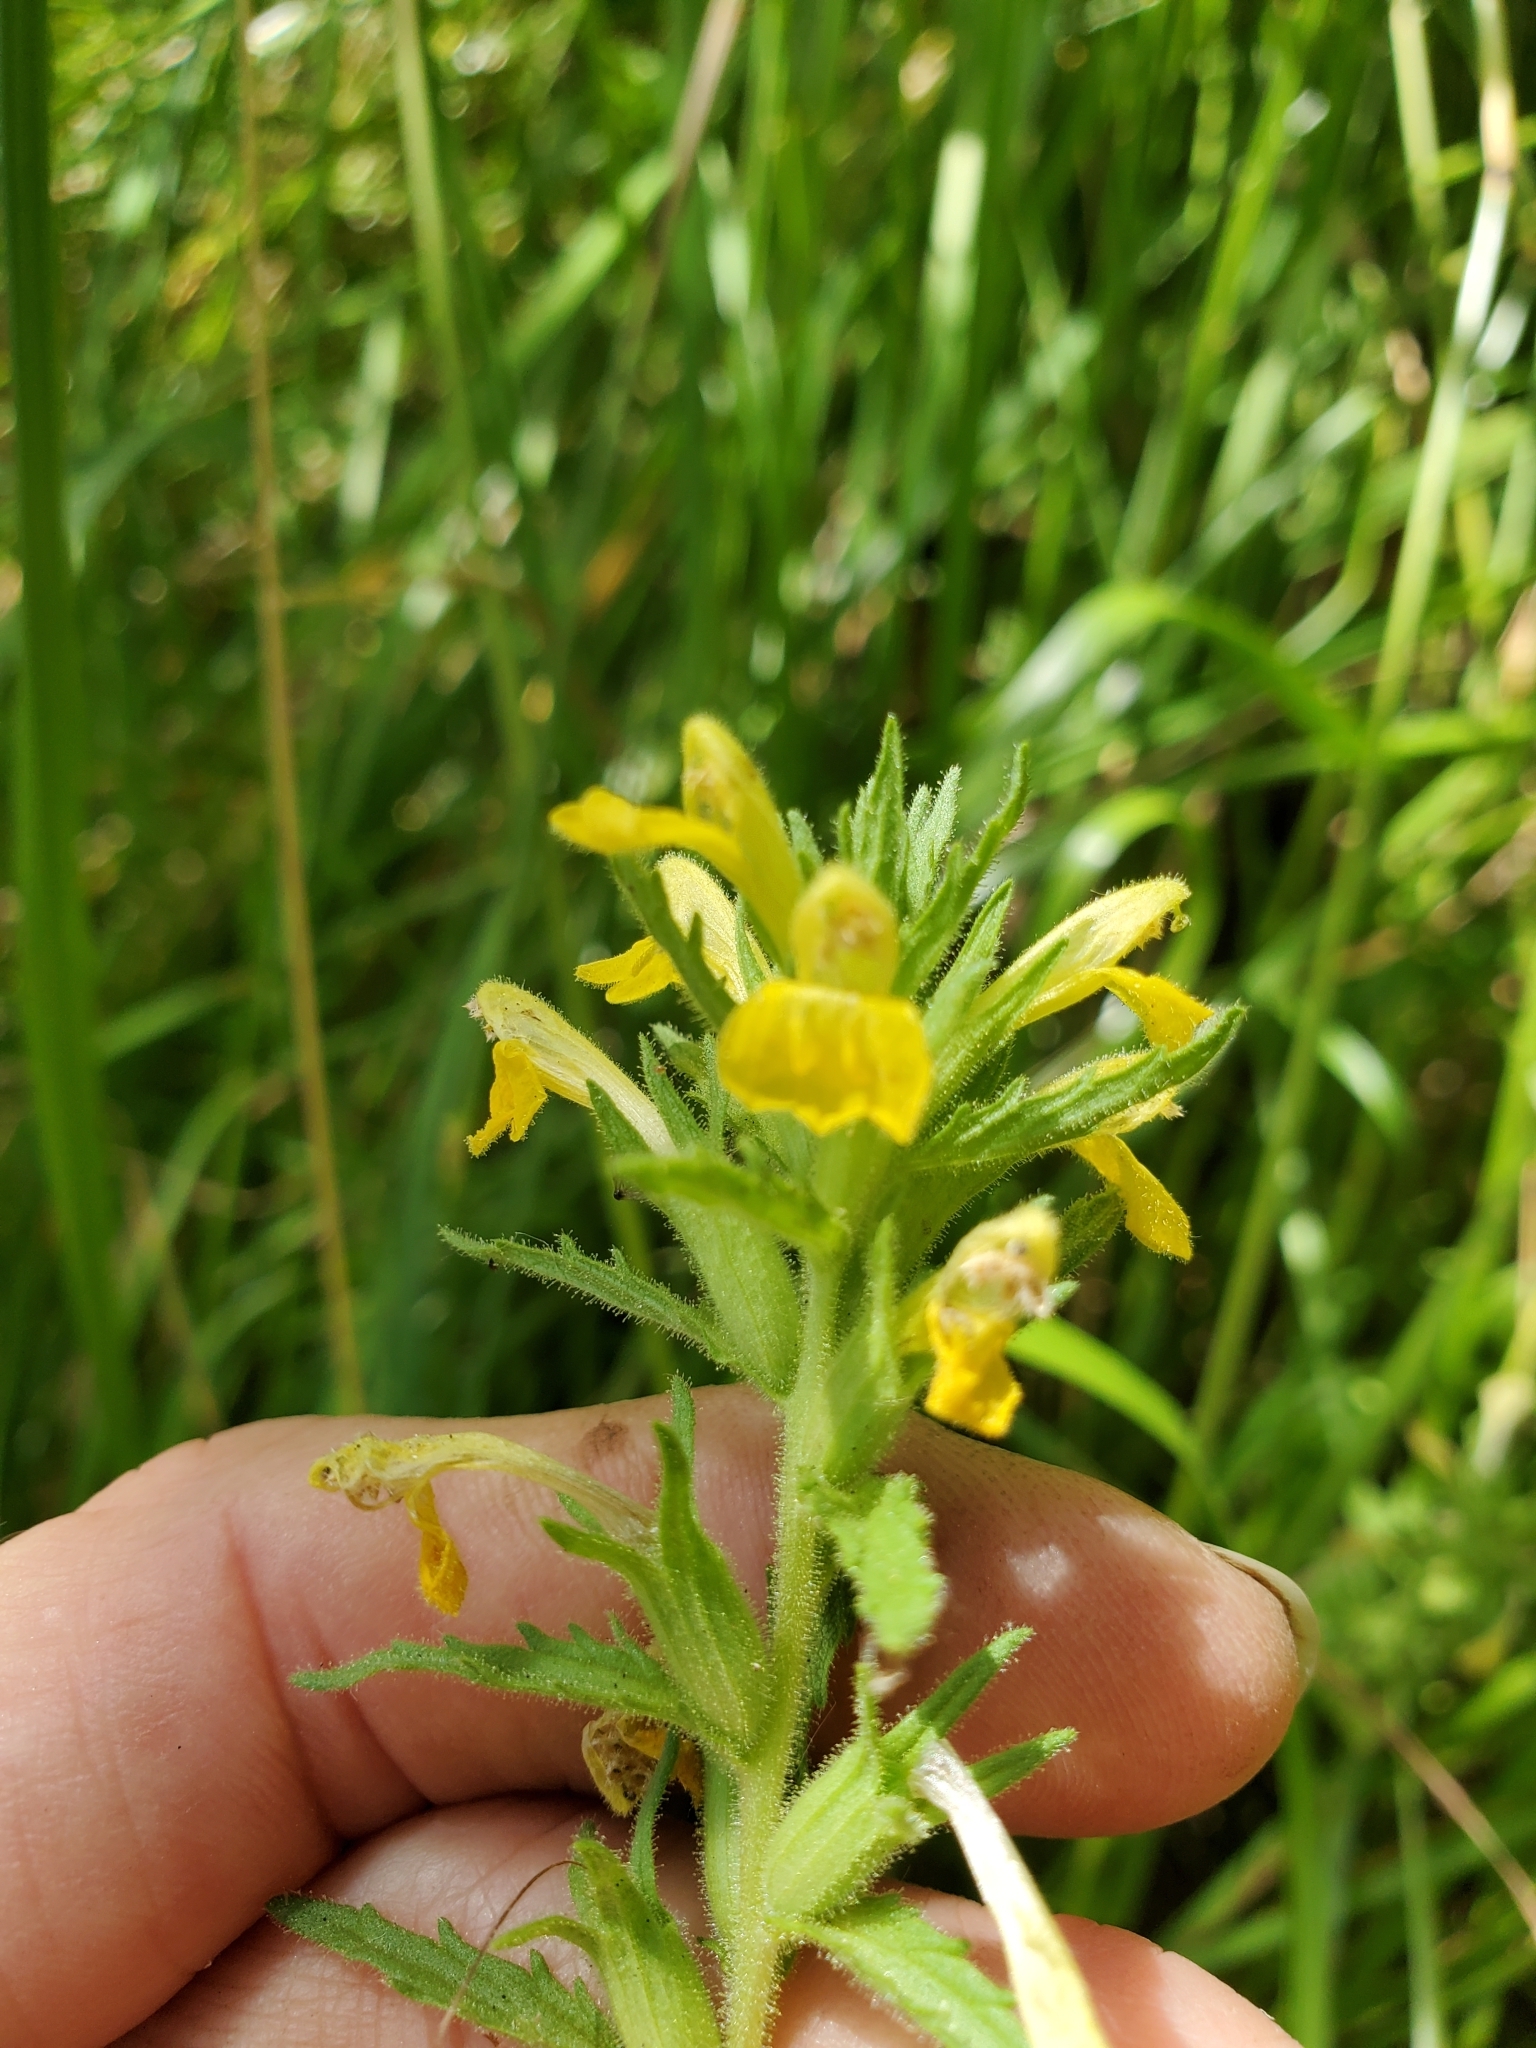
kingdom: Plantae
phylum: Tracheophyta
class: Magnoliopsida
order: Lamiales
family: Orobanchaceae
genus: Bellardia
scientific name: Bellardia viscosa
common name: Sticky parentucellia
